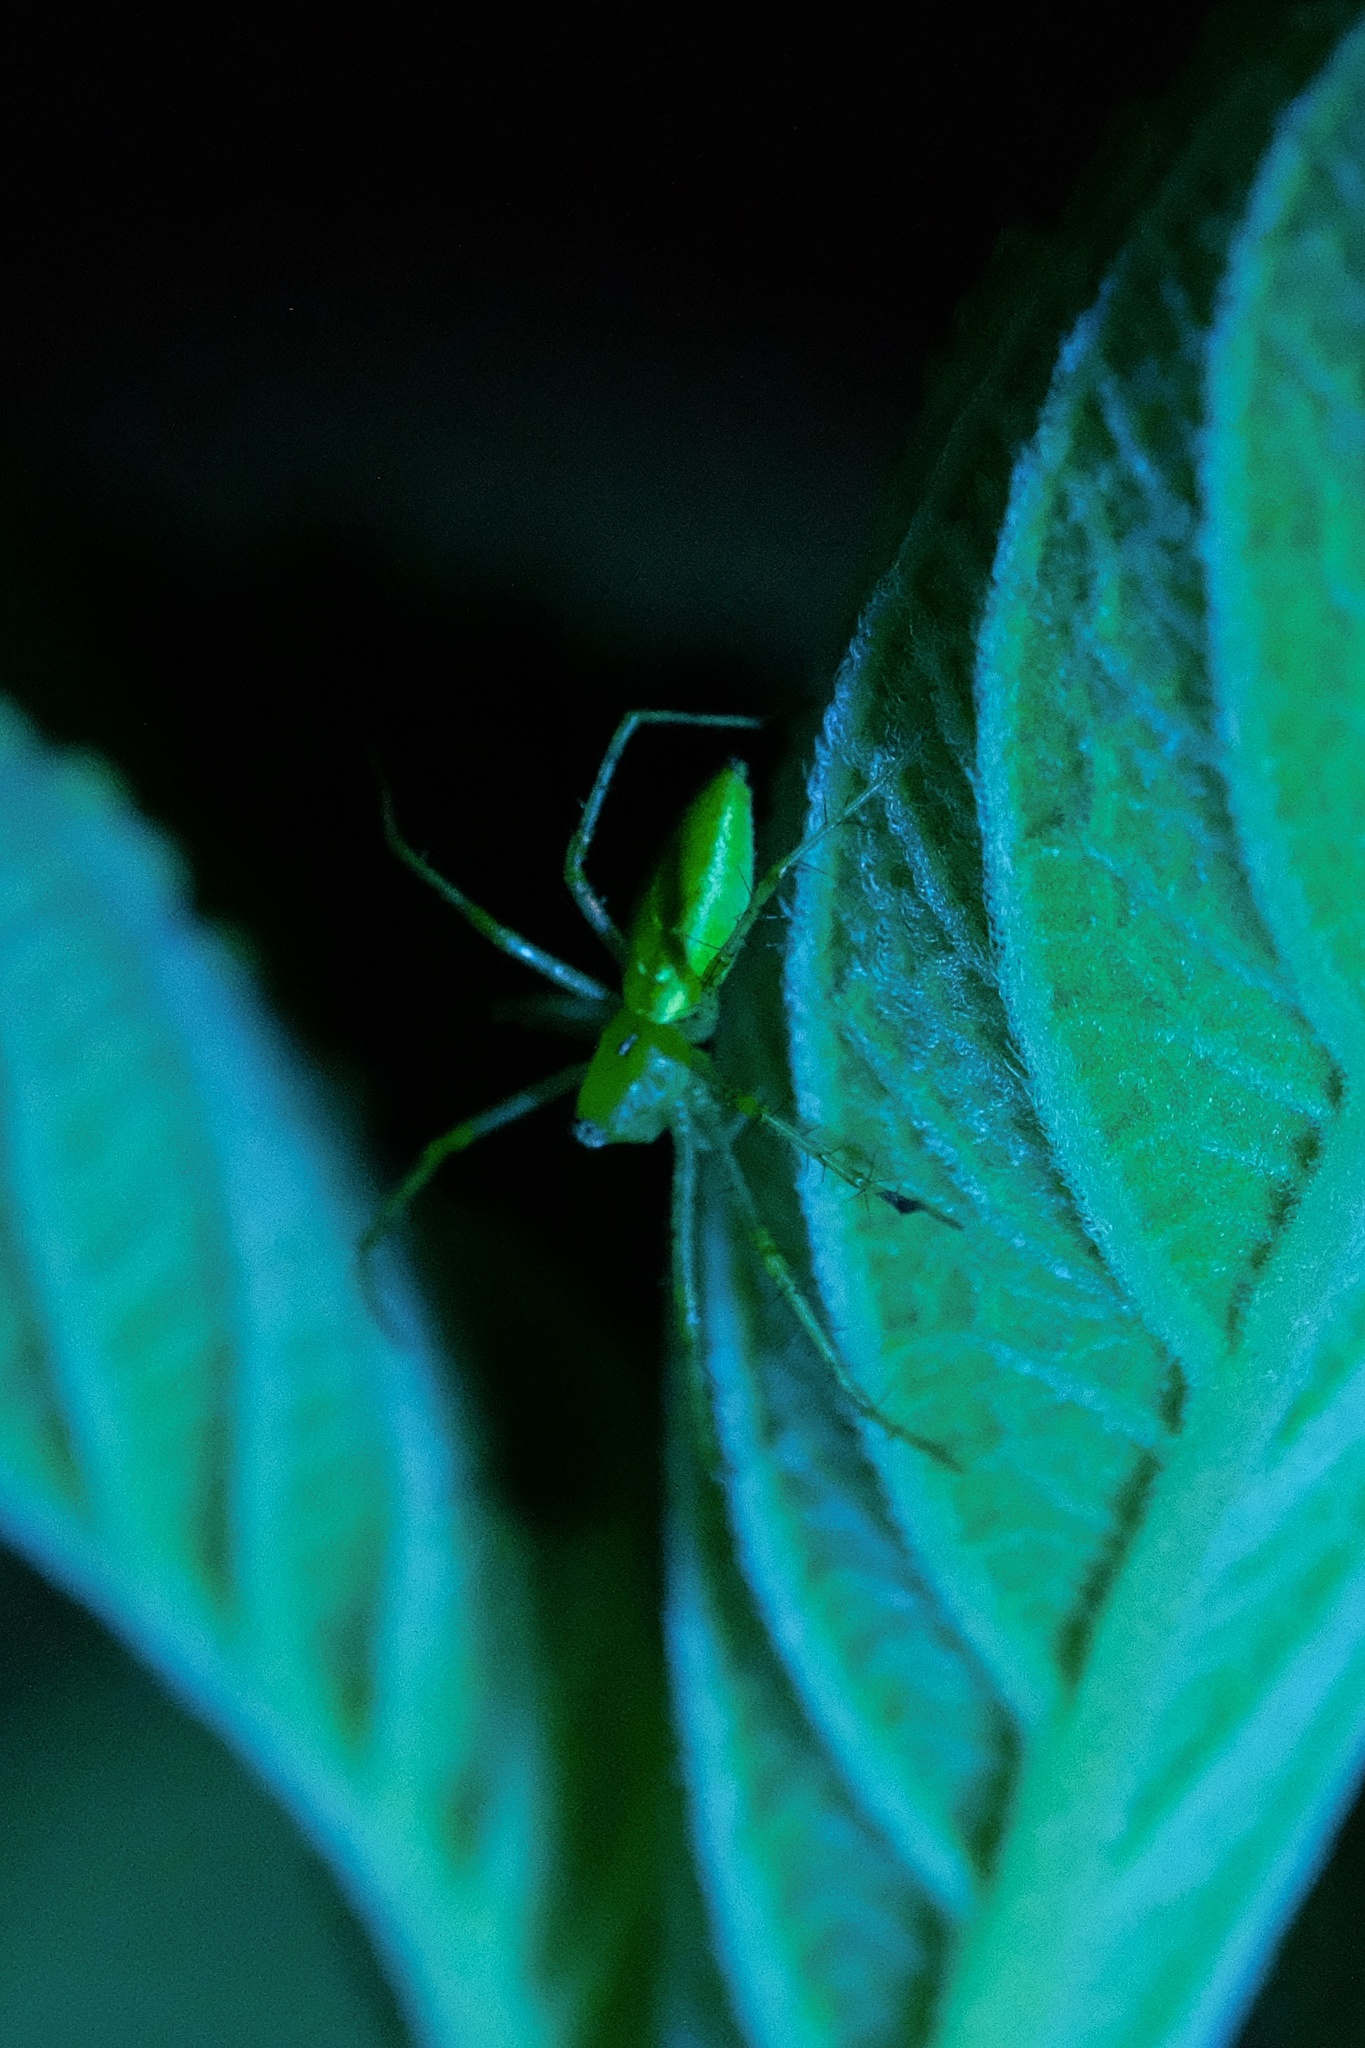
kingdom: Animalia
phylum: Arthropoda
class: Arachnida
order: Araneae
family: Oxyopidae
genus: Peucetia
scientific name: Peucetia viridans
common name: Lynx spiders
